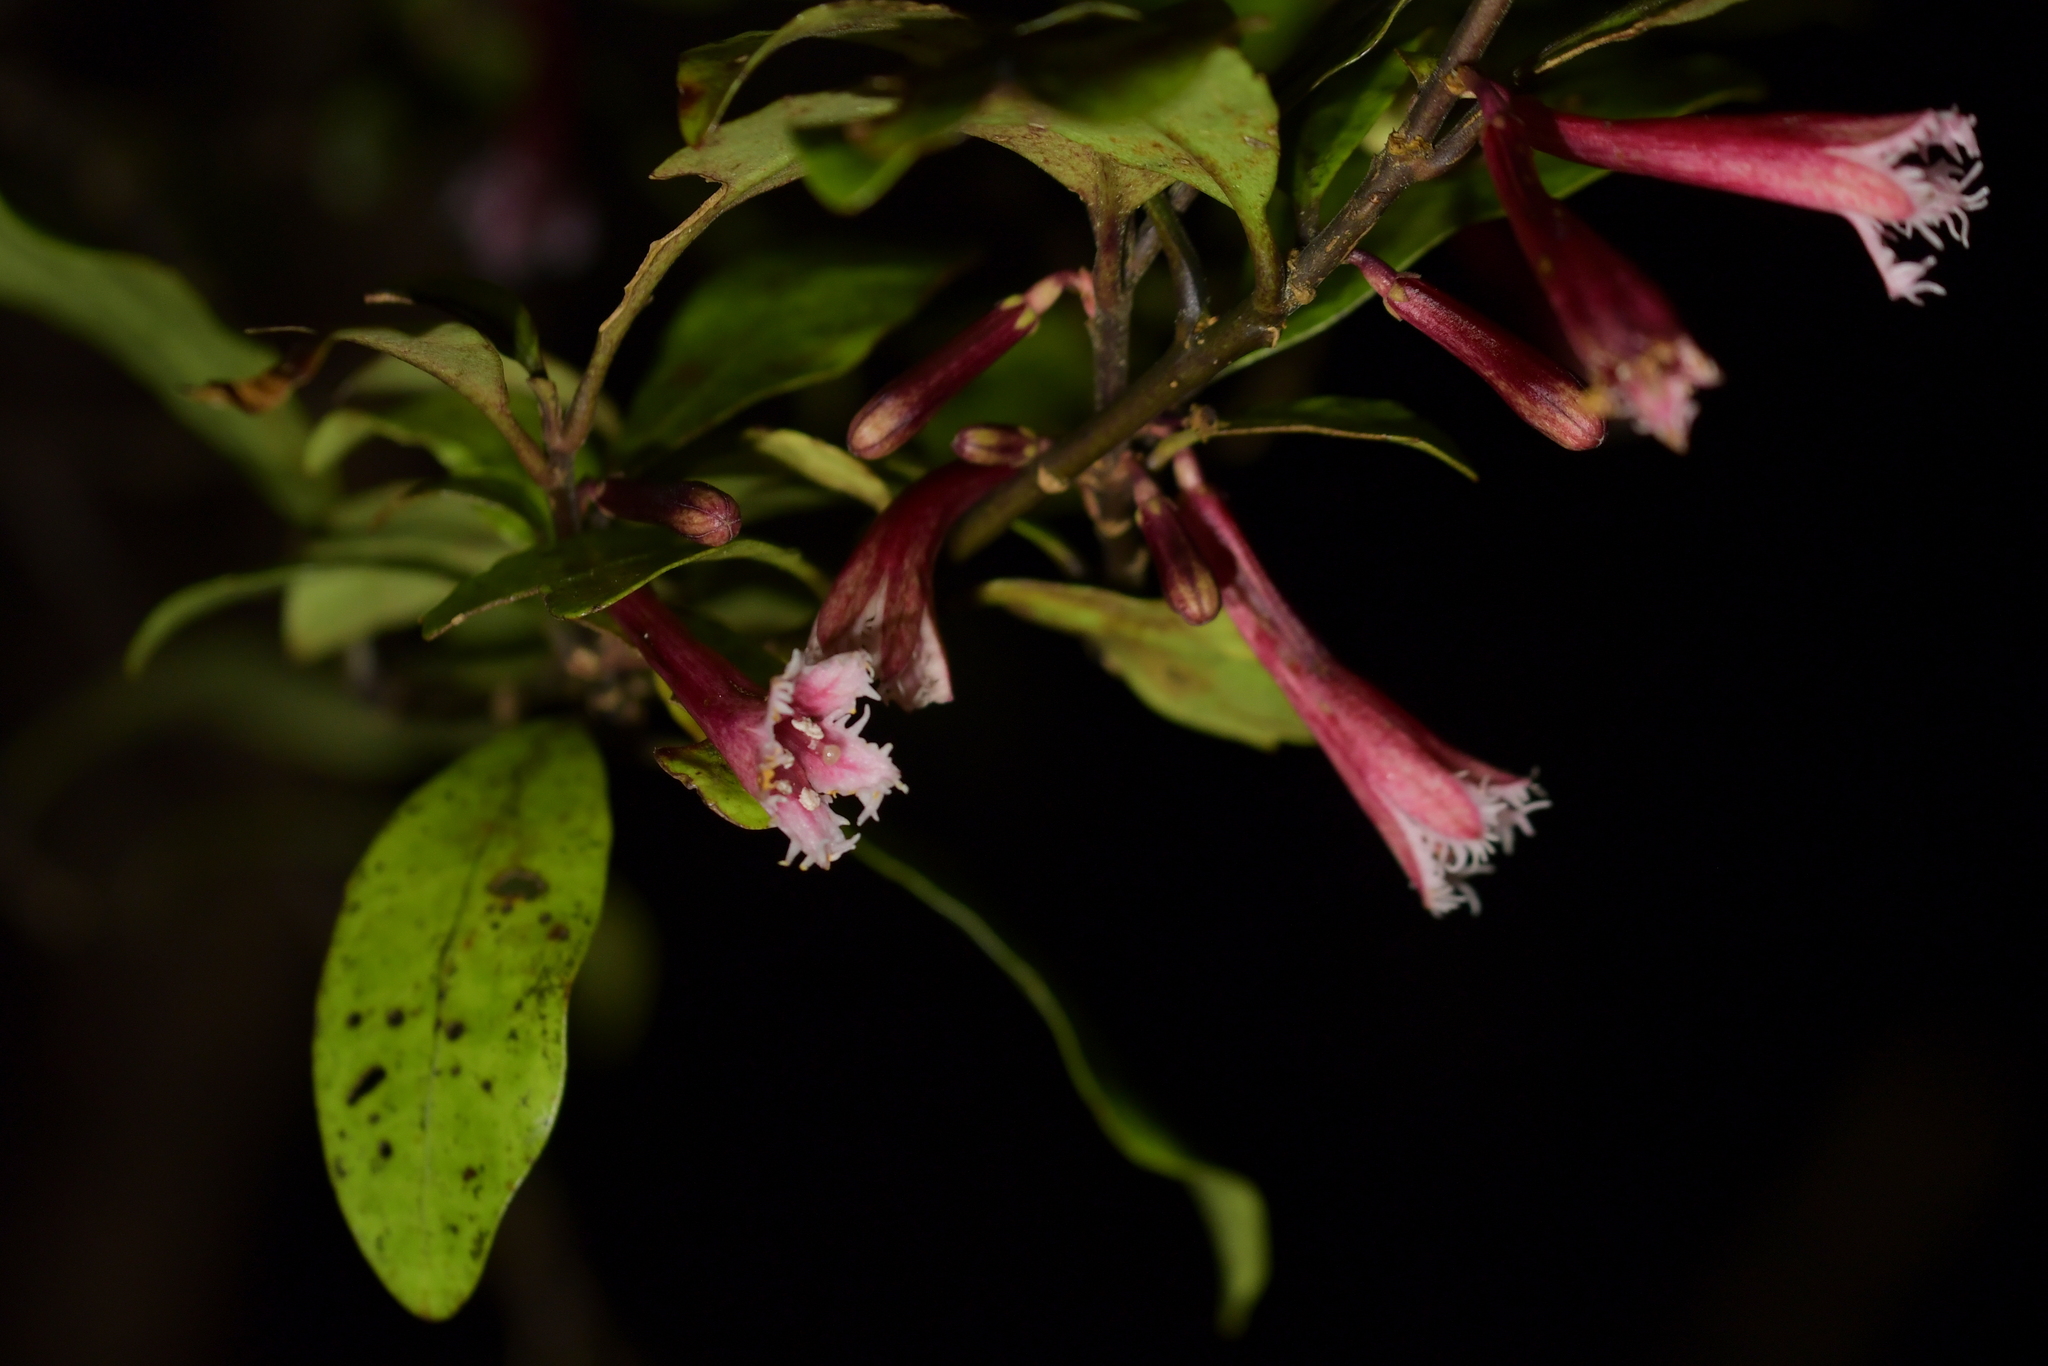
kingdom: Plantae
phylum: Tracheophyta
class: Magnoliopsida
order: Asterales
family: Alseuosmiaceae
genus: Alseuosmia
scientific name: Alseuosmia macrophylla
